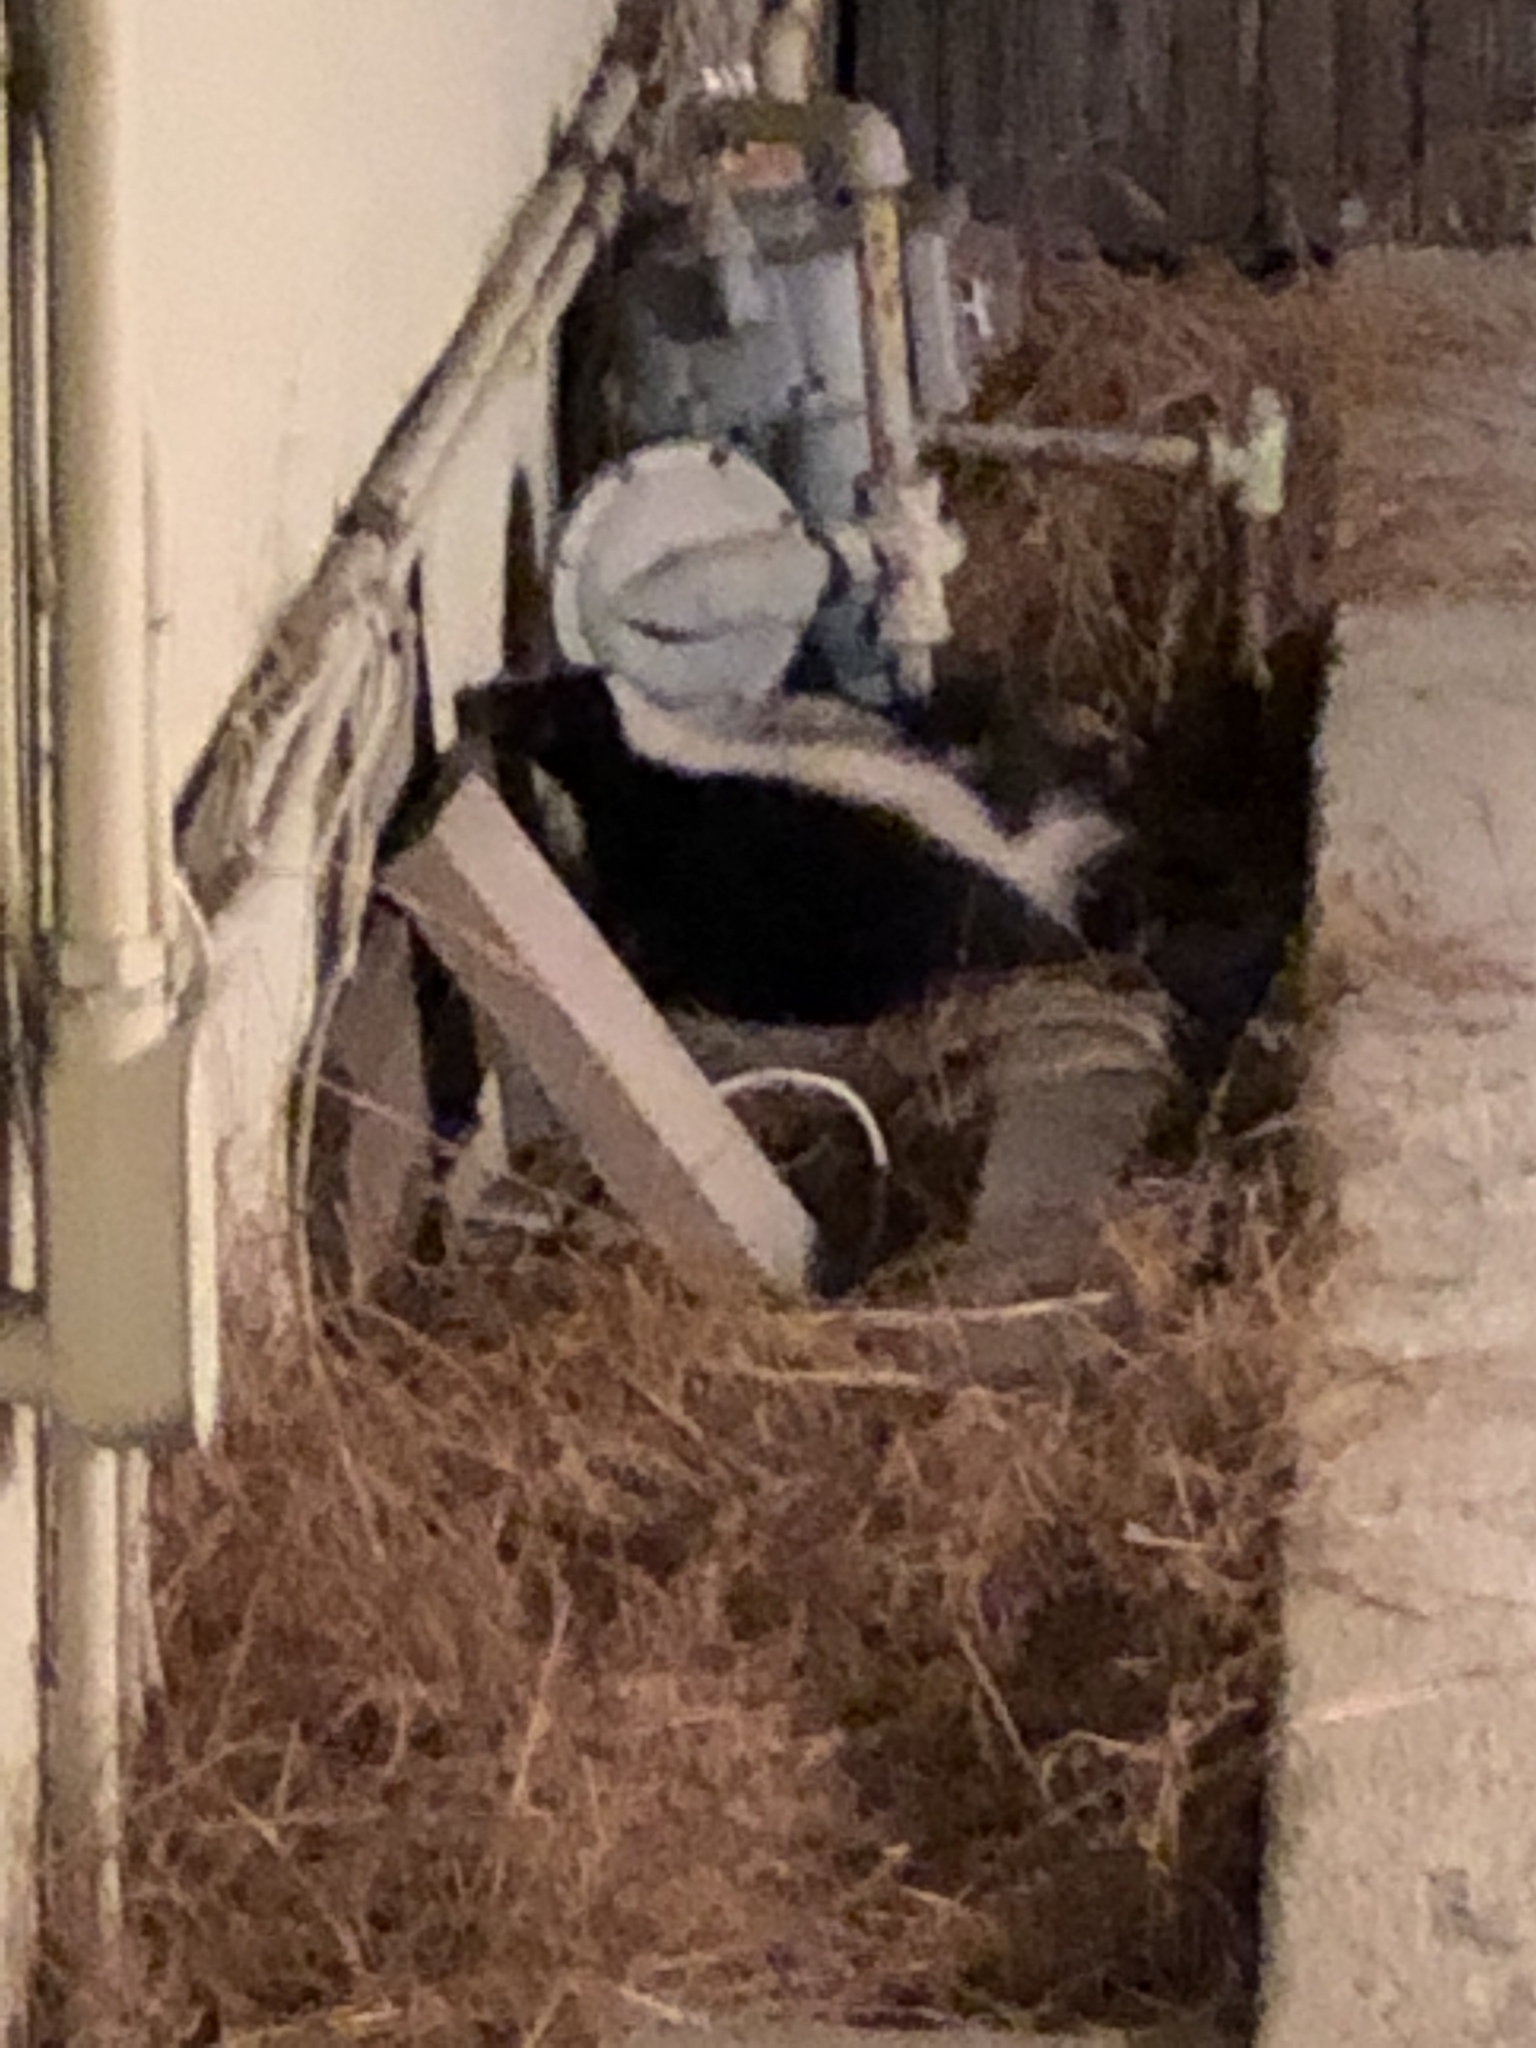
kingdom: Animalia
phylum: Chordata
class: Mammalia
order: Carnivora
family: Mephitidae
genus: Mephitis
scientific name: Mephitis mephitis
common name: Striped skunk
